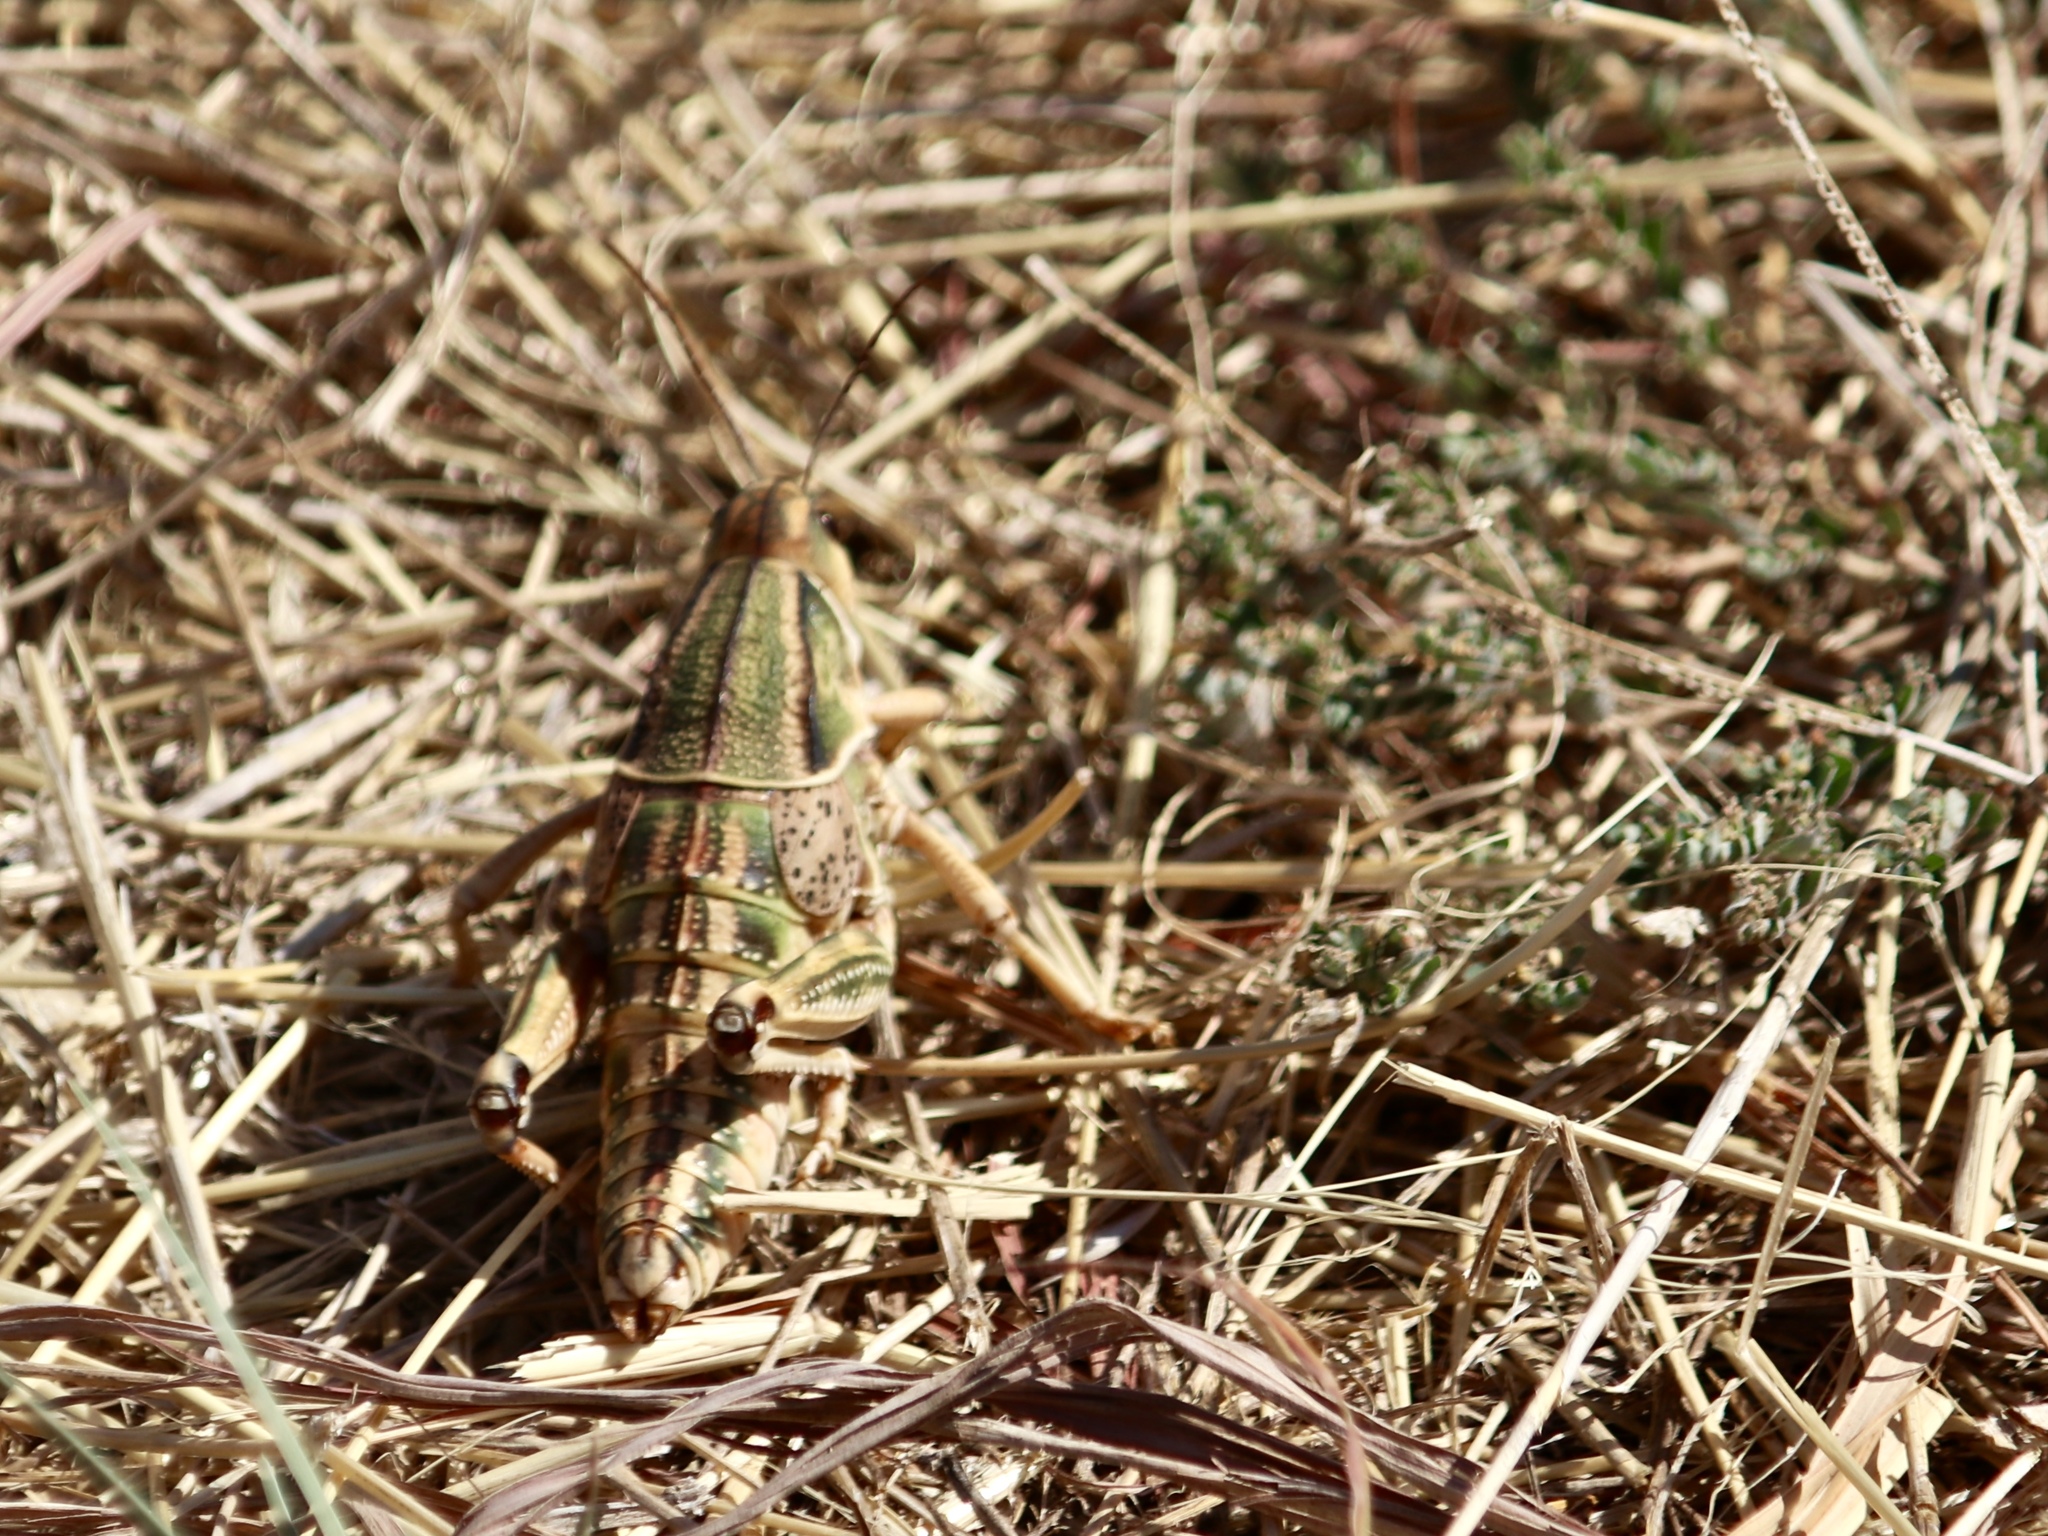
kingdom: Animalia
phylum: Arthropoda
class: Insecta
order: Orthoptera
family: Romaleidae
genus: Brachystola
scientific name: Brachystola magna
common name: Plains lubber grasshopper
